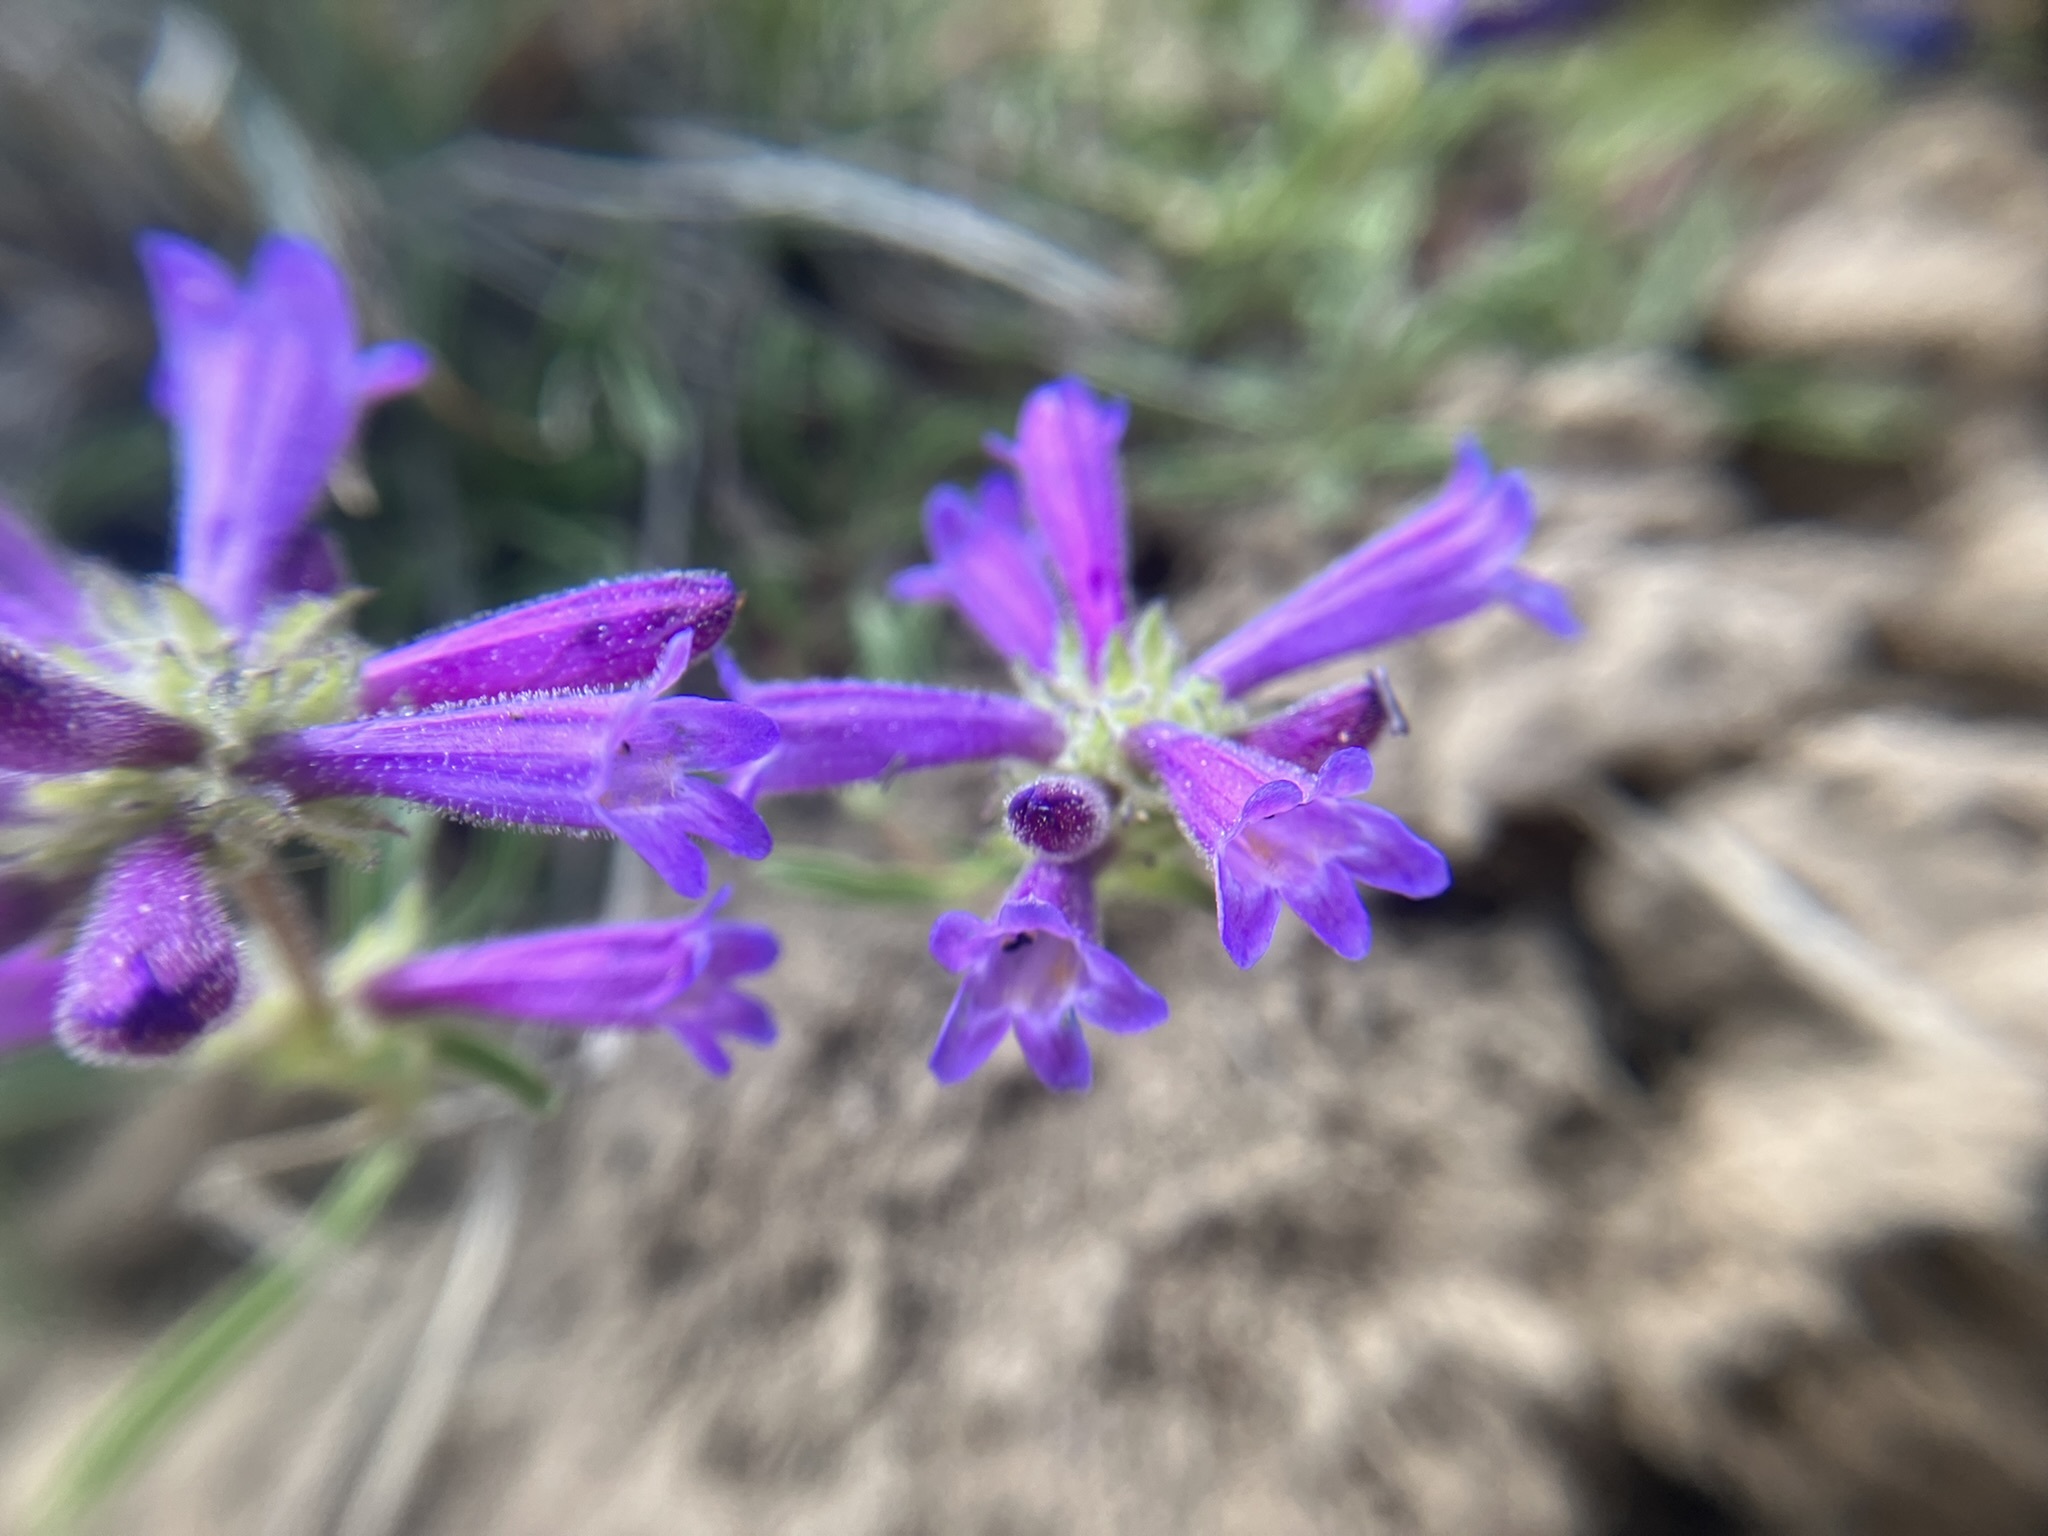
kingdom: Plantae
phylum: Tracheophyta
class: Magnoliopsida
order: Lamiales
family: Plantaginaceae
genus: Penstemon
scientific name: Penstemon heterodoxus
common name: Sierran penstemon
